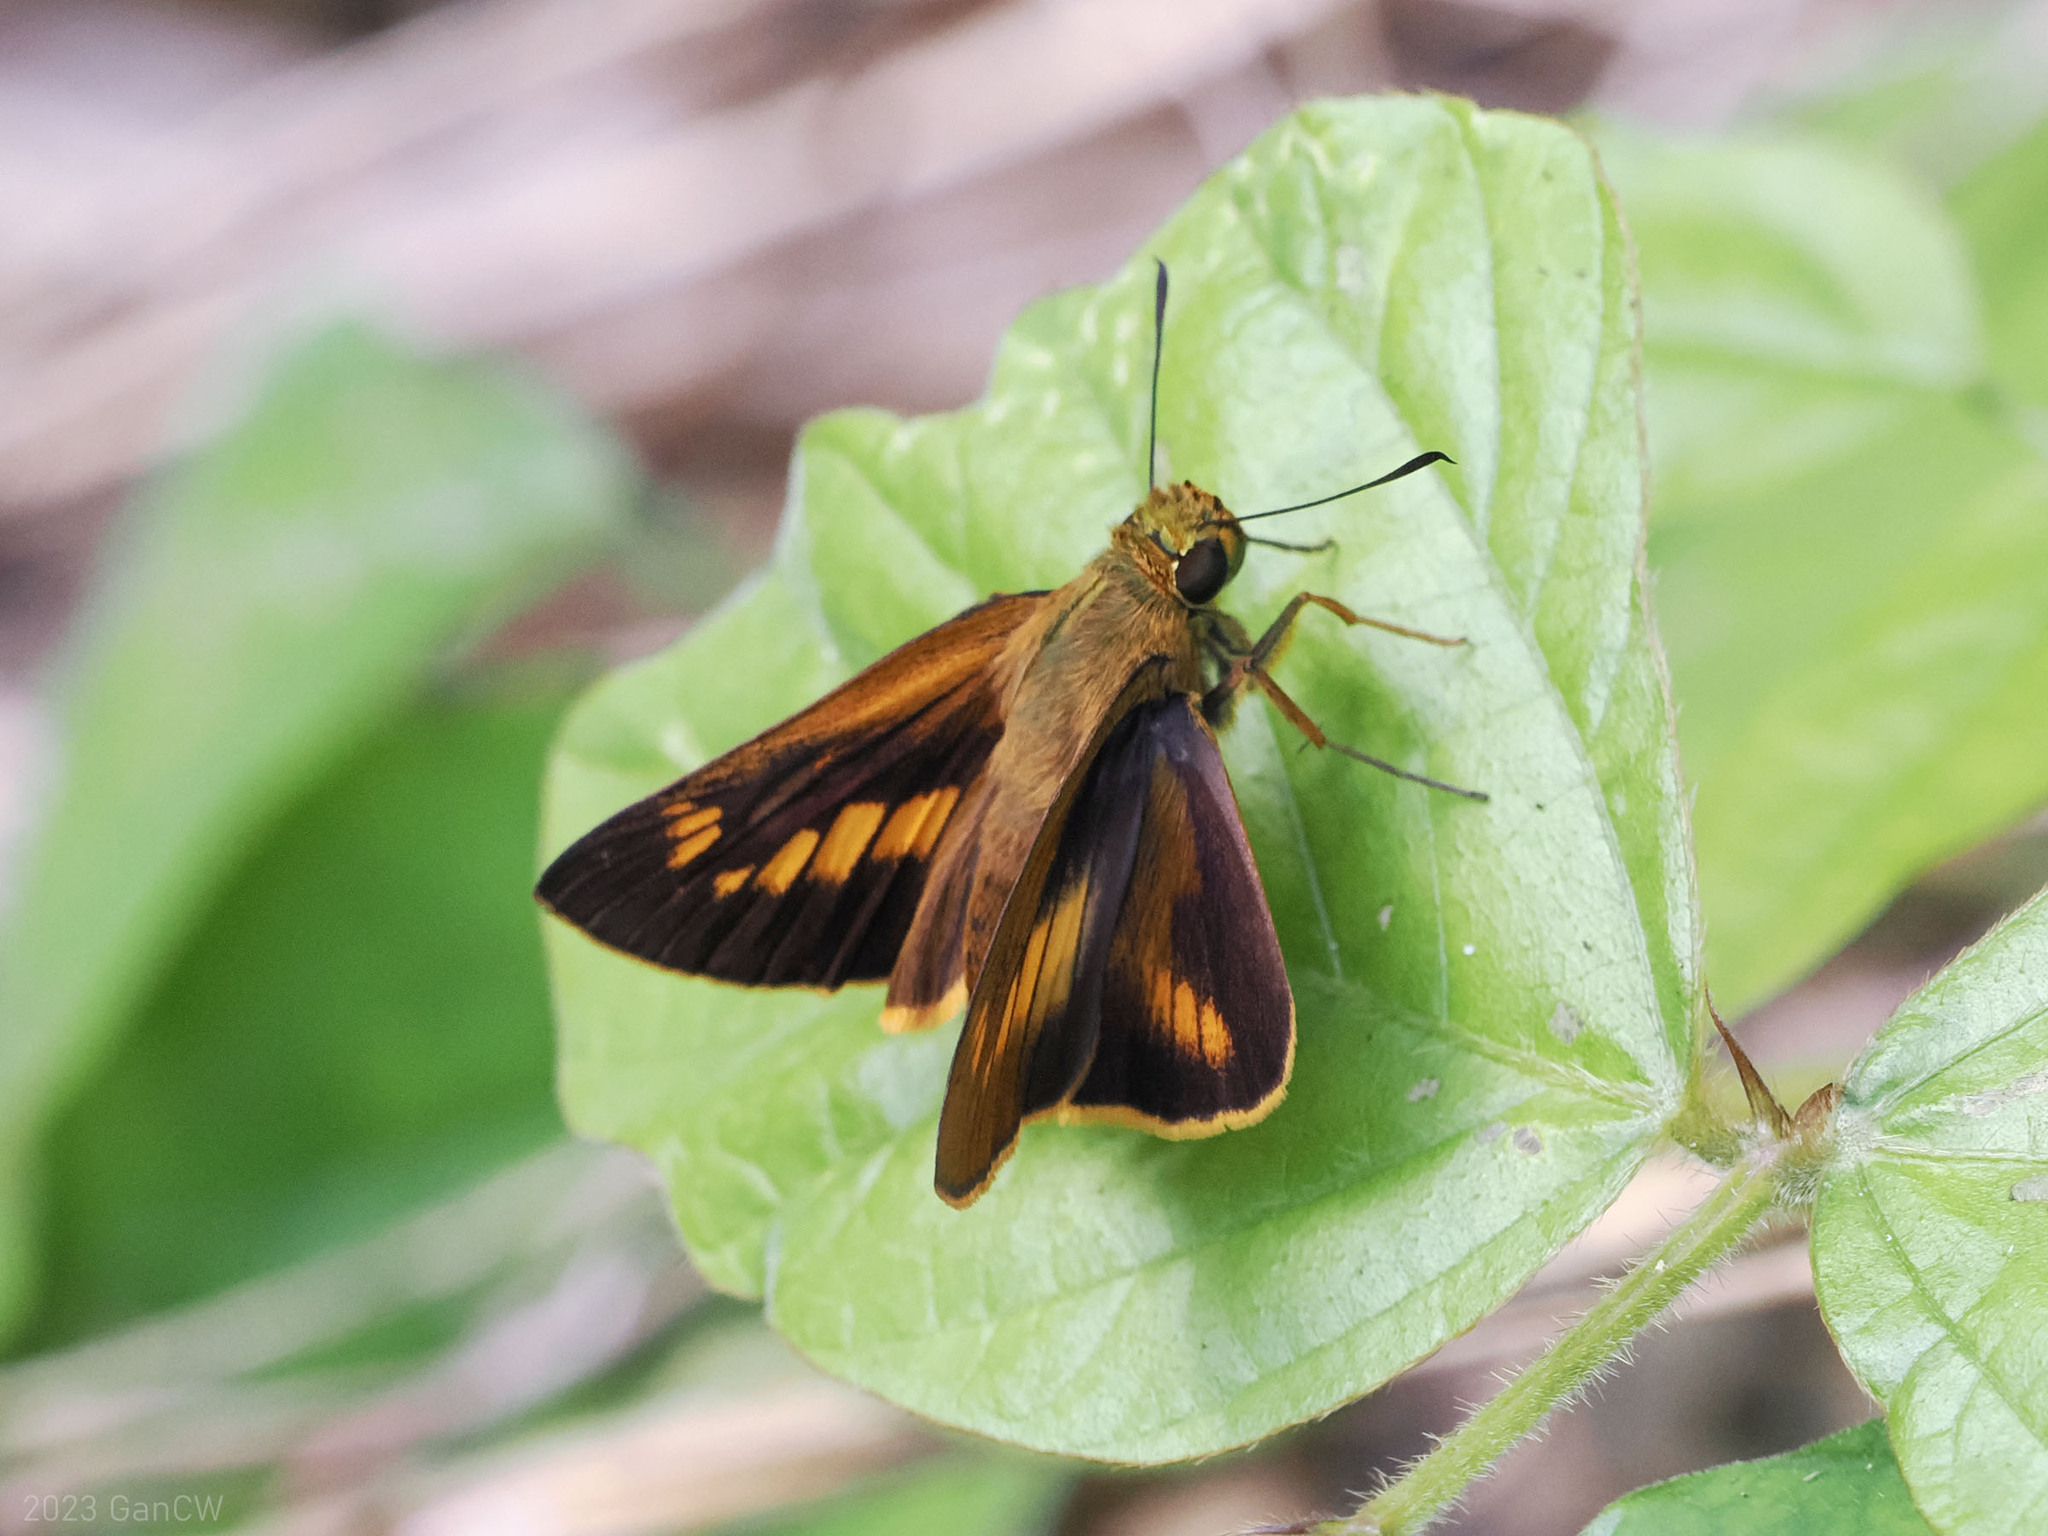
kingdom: Animalia
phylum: Arthropoda
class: Insecta
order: Lepidoptera
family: Hesperiidae
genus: Prusiana
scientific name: Prusiana prusias
